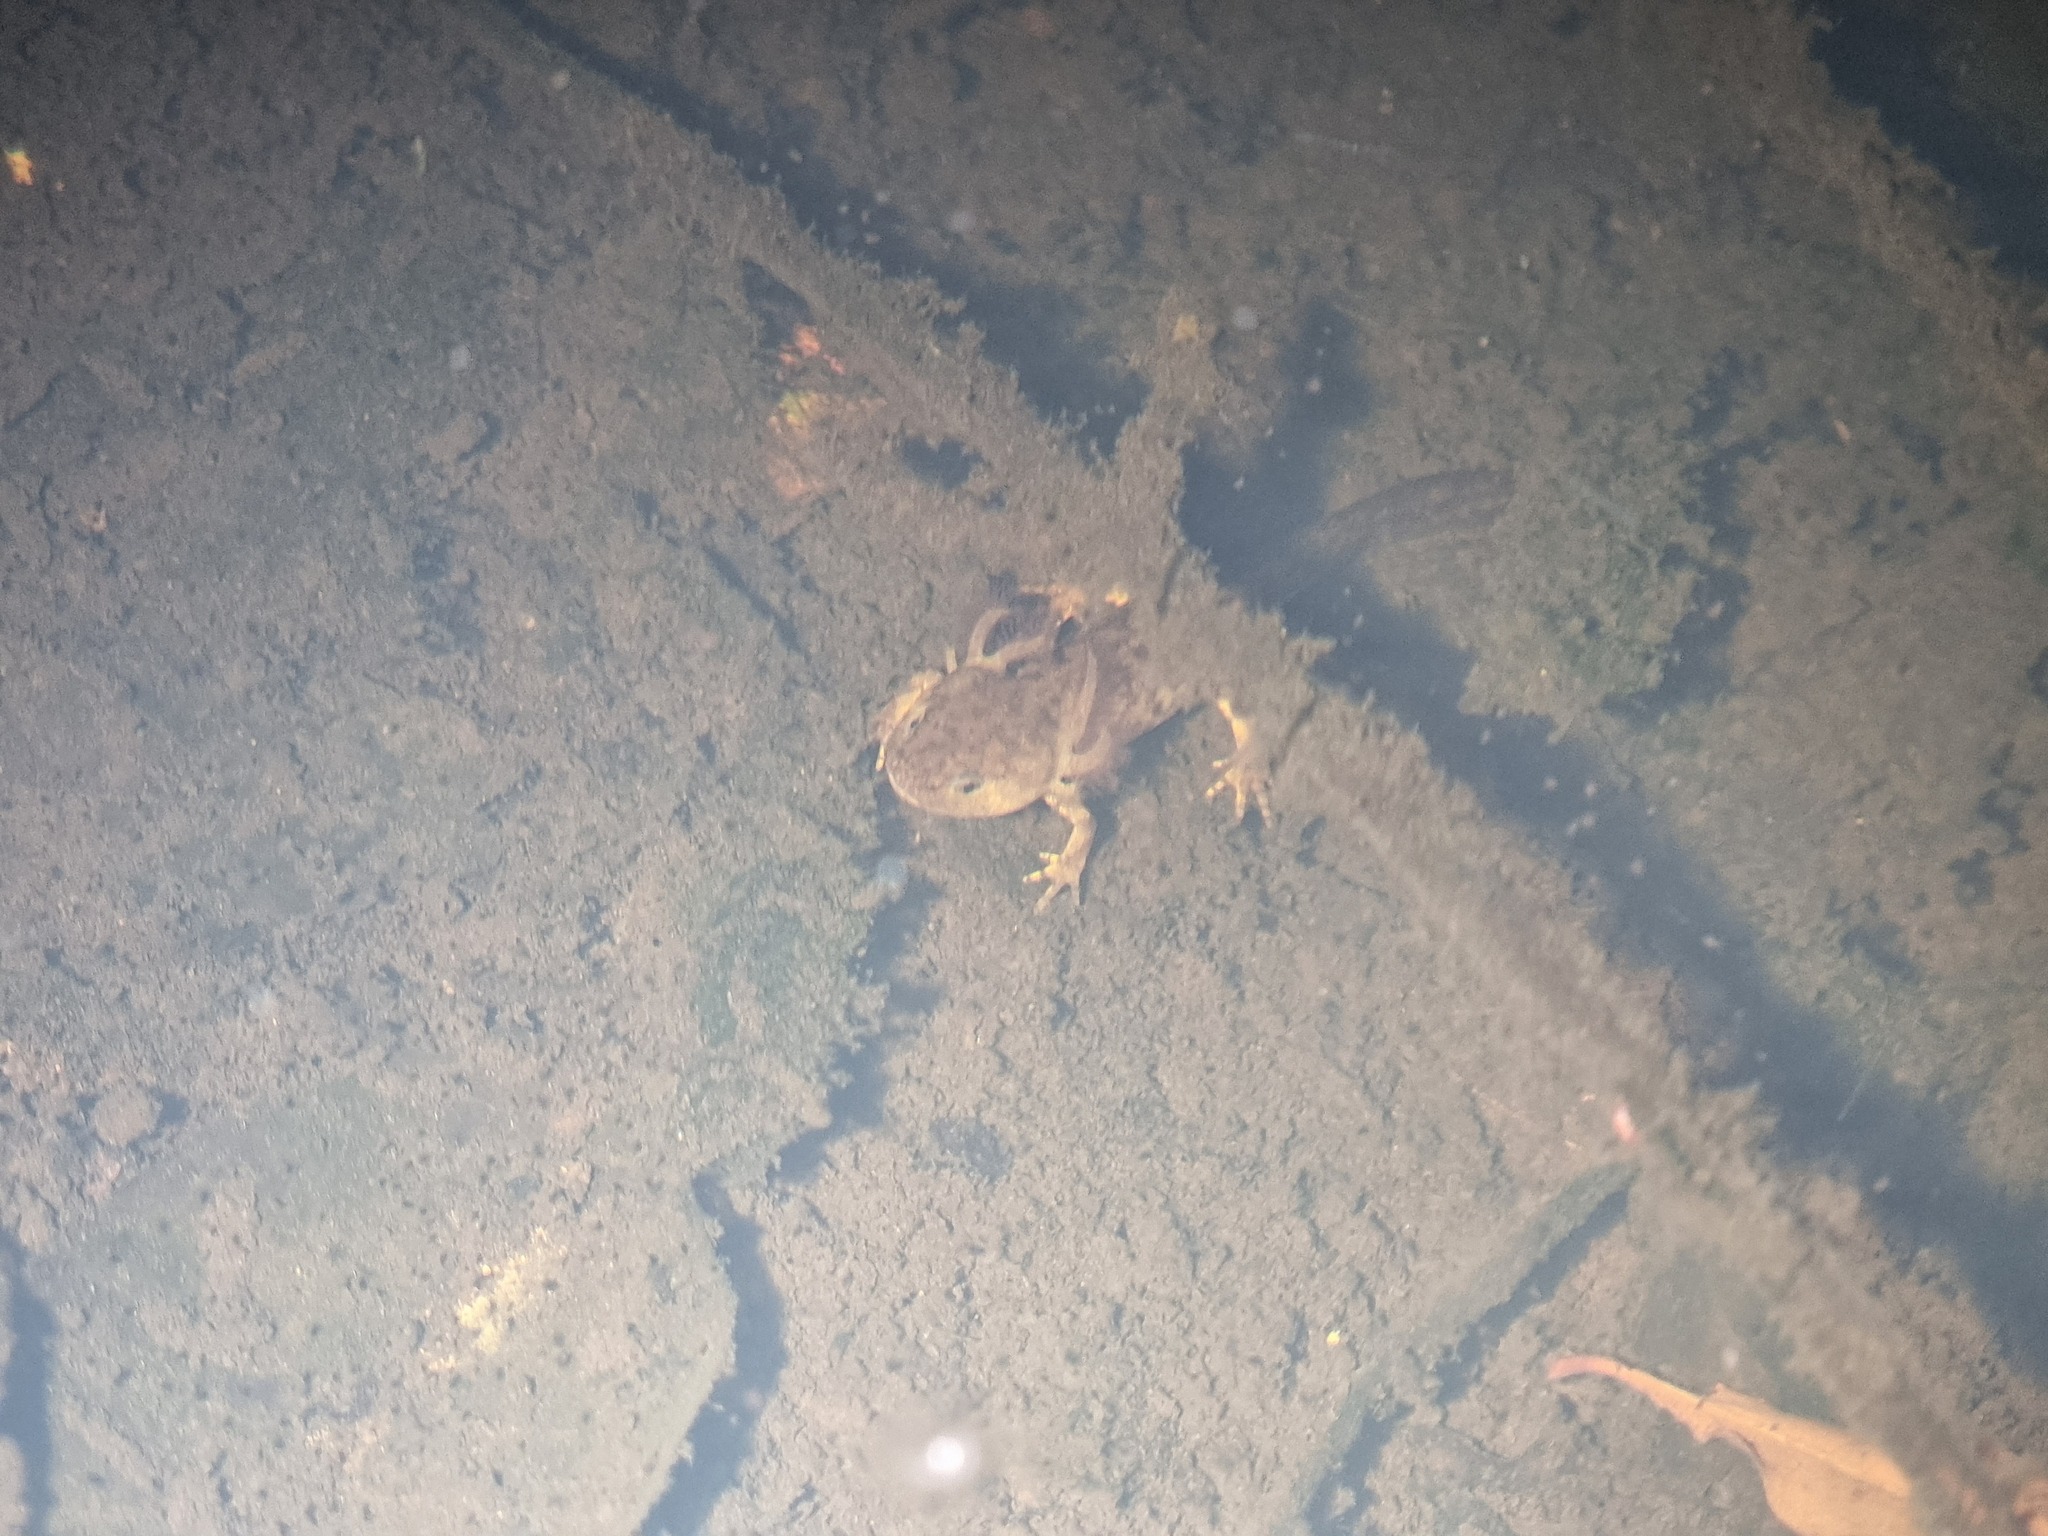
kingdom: Animalia
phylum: Chordata
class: Amphibia
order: Caudata
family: Salamandridae
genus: Ichthyosaura
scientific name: Ichthyosaura alpestris
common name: Alpine newt
